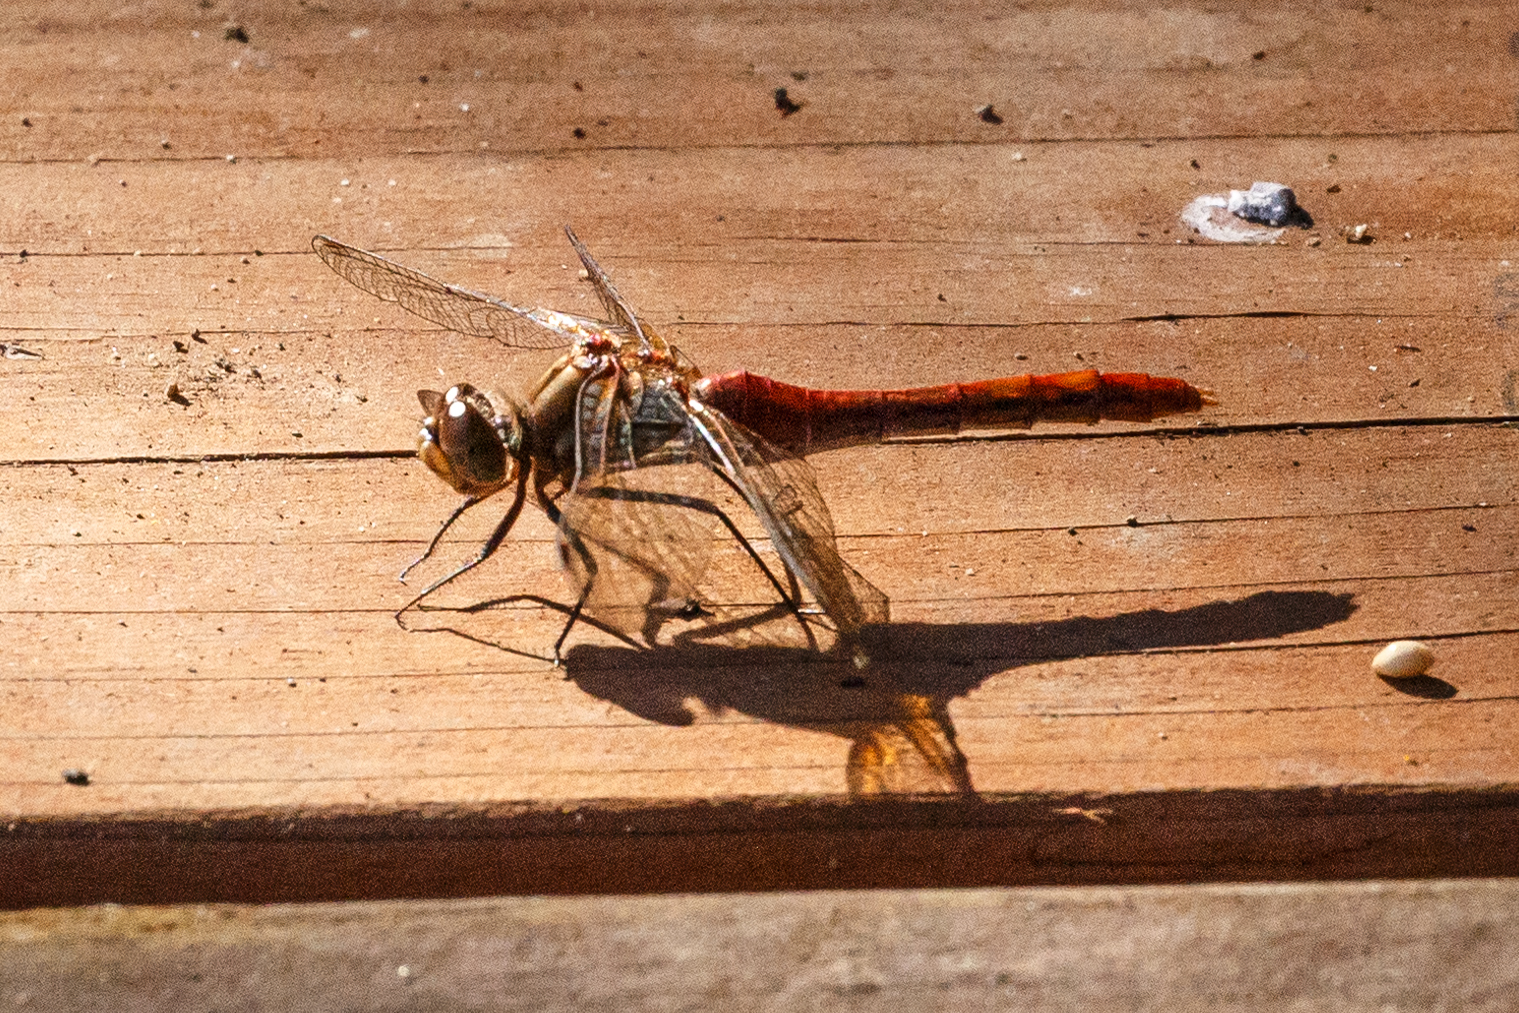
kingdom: Animalia
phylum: Arthropoda
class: Insecta
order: Odonata
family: Libellulidae
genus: Sympetrum
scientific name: Sympetrum pallipes
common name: Striped meadowhawk
